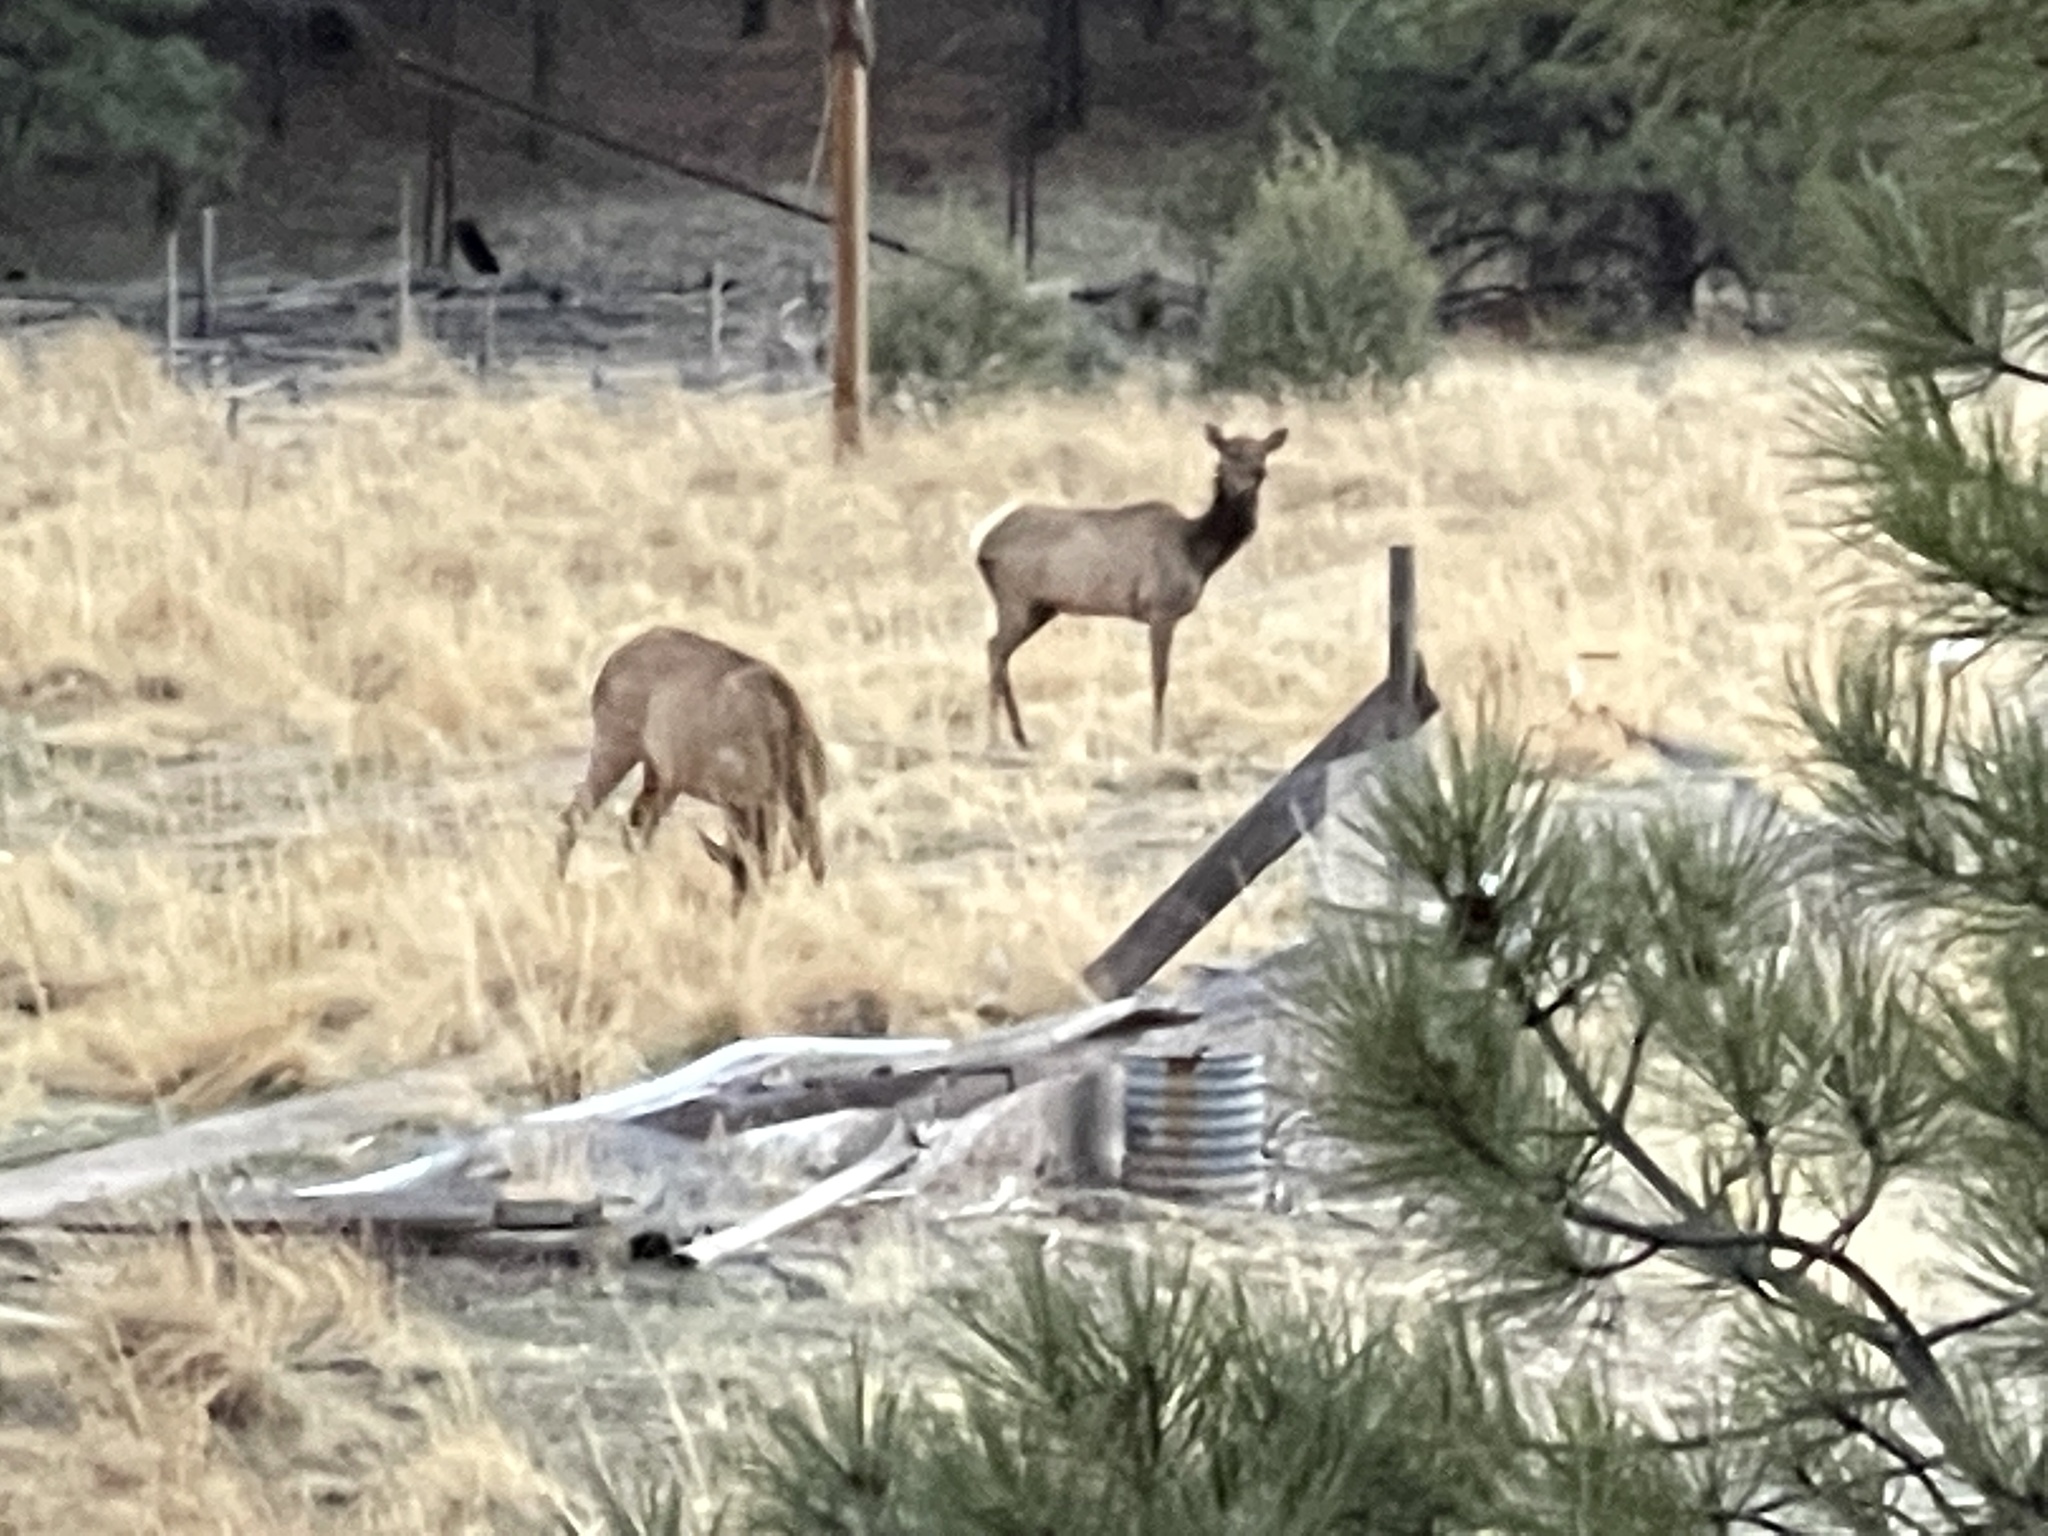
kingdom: Animalia
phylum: Chordata
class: Mammalia
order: Artiodactyla
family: Cervidae
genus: Cervus
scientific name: Cervus elaphus
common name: Red deer
